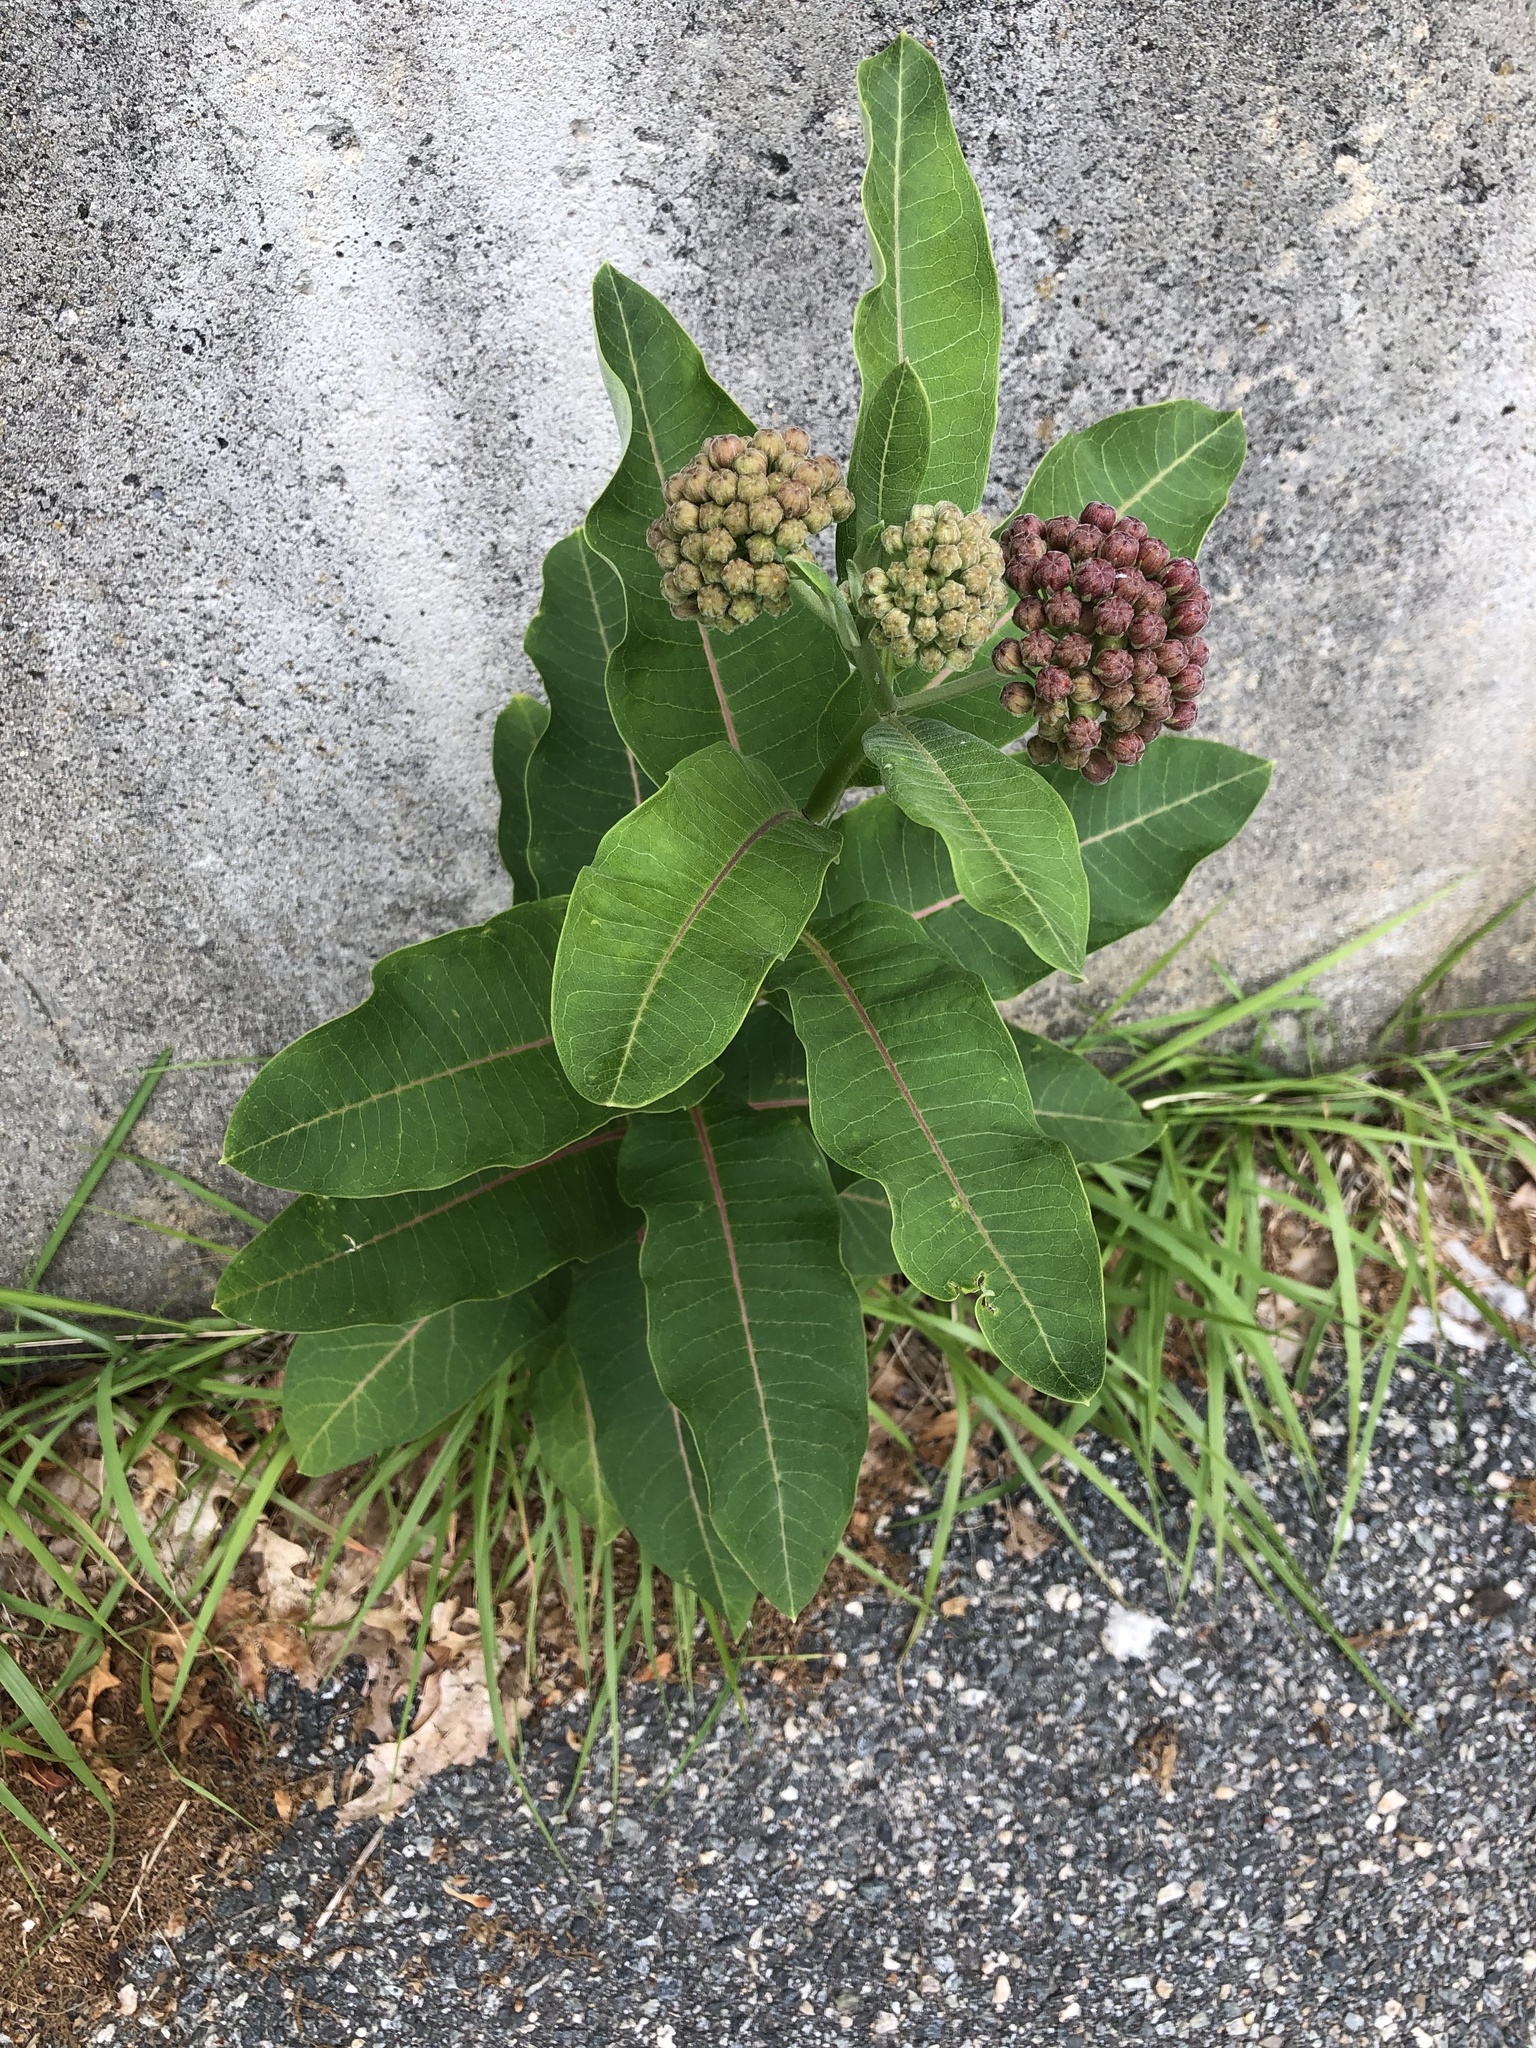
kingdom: Plantae
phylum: Tracheophyta
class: Magnoliopsida
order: Gentianales
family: Apocynaceae
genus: Asclepias
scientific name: Asclepias syriaca
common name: Common milkweed
